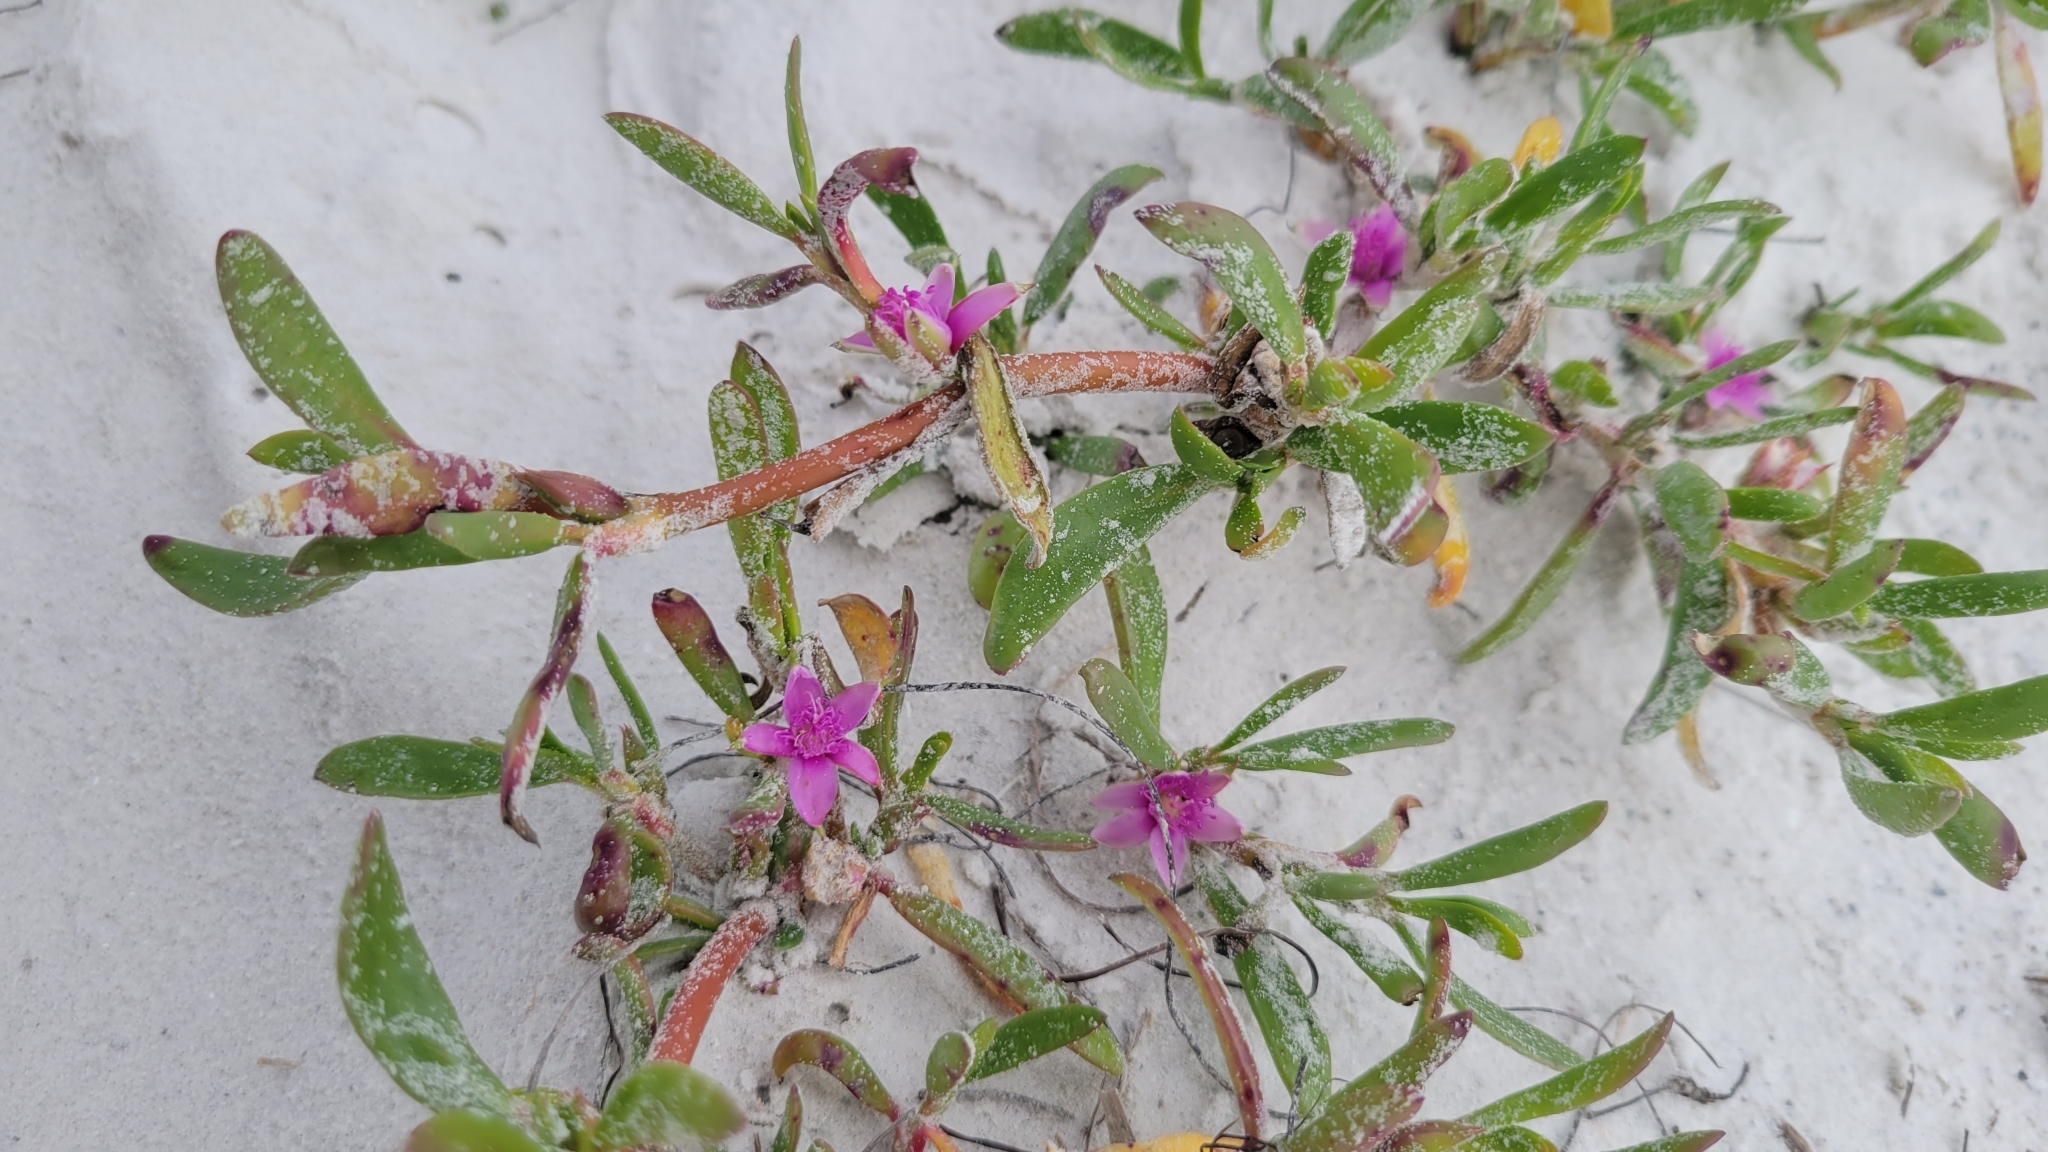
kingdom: Plantae
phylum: Tracheophyta
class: Magnoliopsida
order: Caryophyllales
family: Aizoaceae
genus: Sesuvium
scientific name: Sesuvium portulacastrum
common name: Sea-purslane
